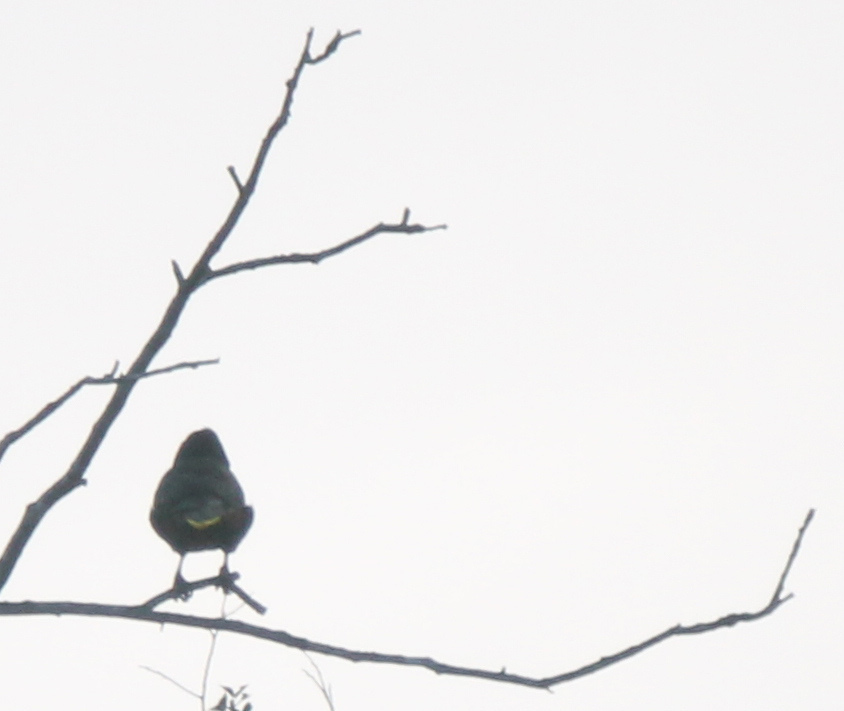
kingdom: Animalia
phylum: Chordata
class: Aves
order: Passeriformes
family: Icteridae
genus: Psarocolius
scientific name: Psarocolius decumanus
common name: Crested oropendola
